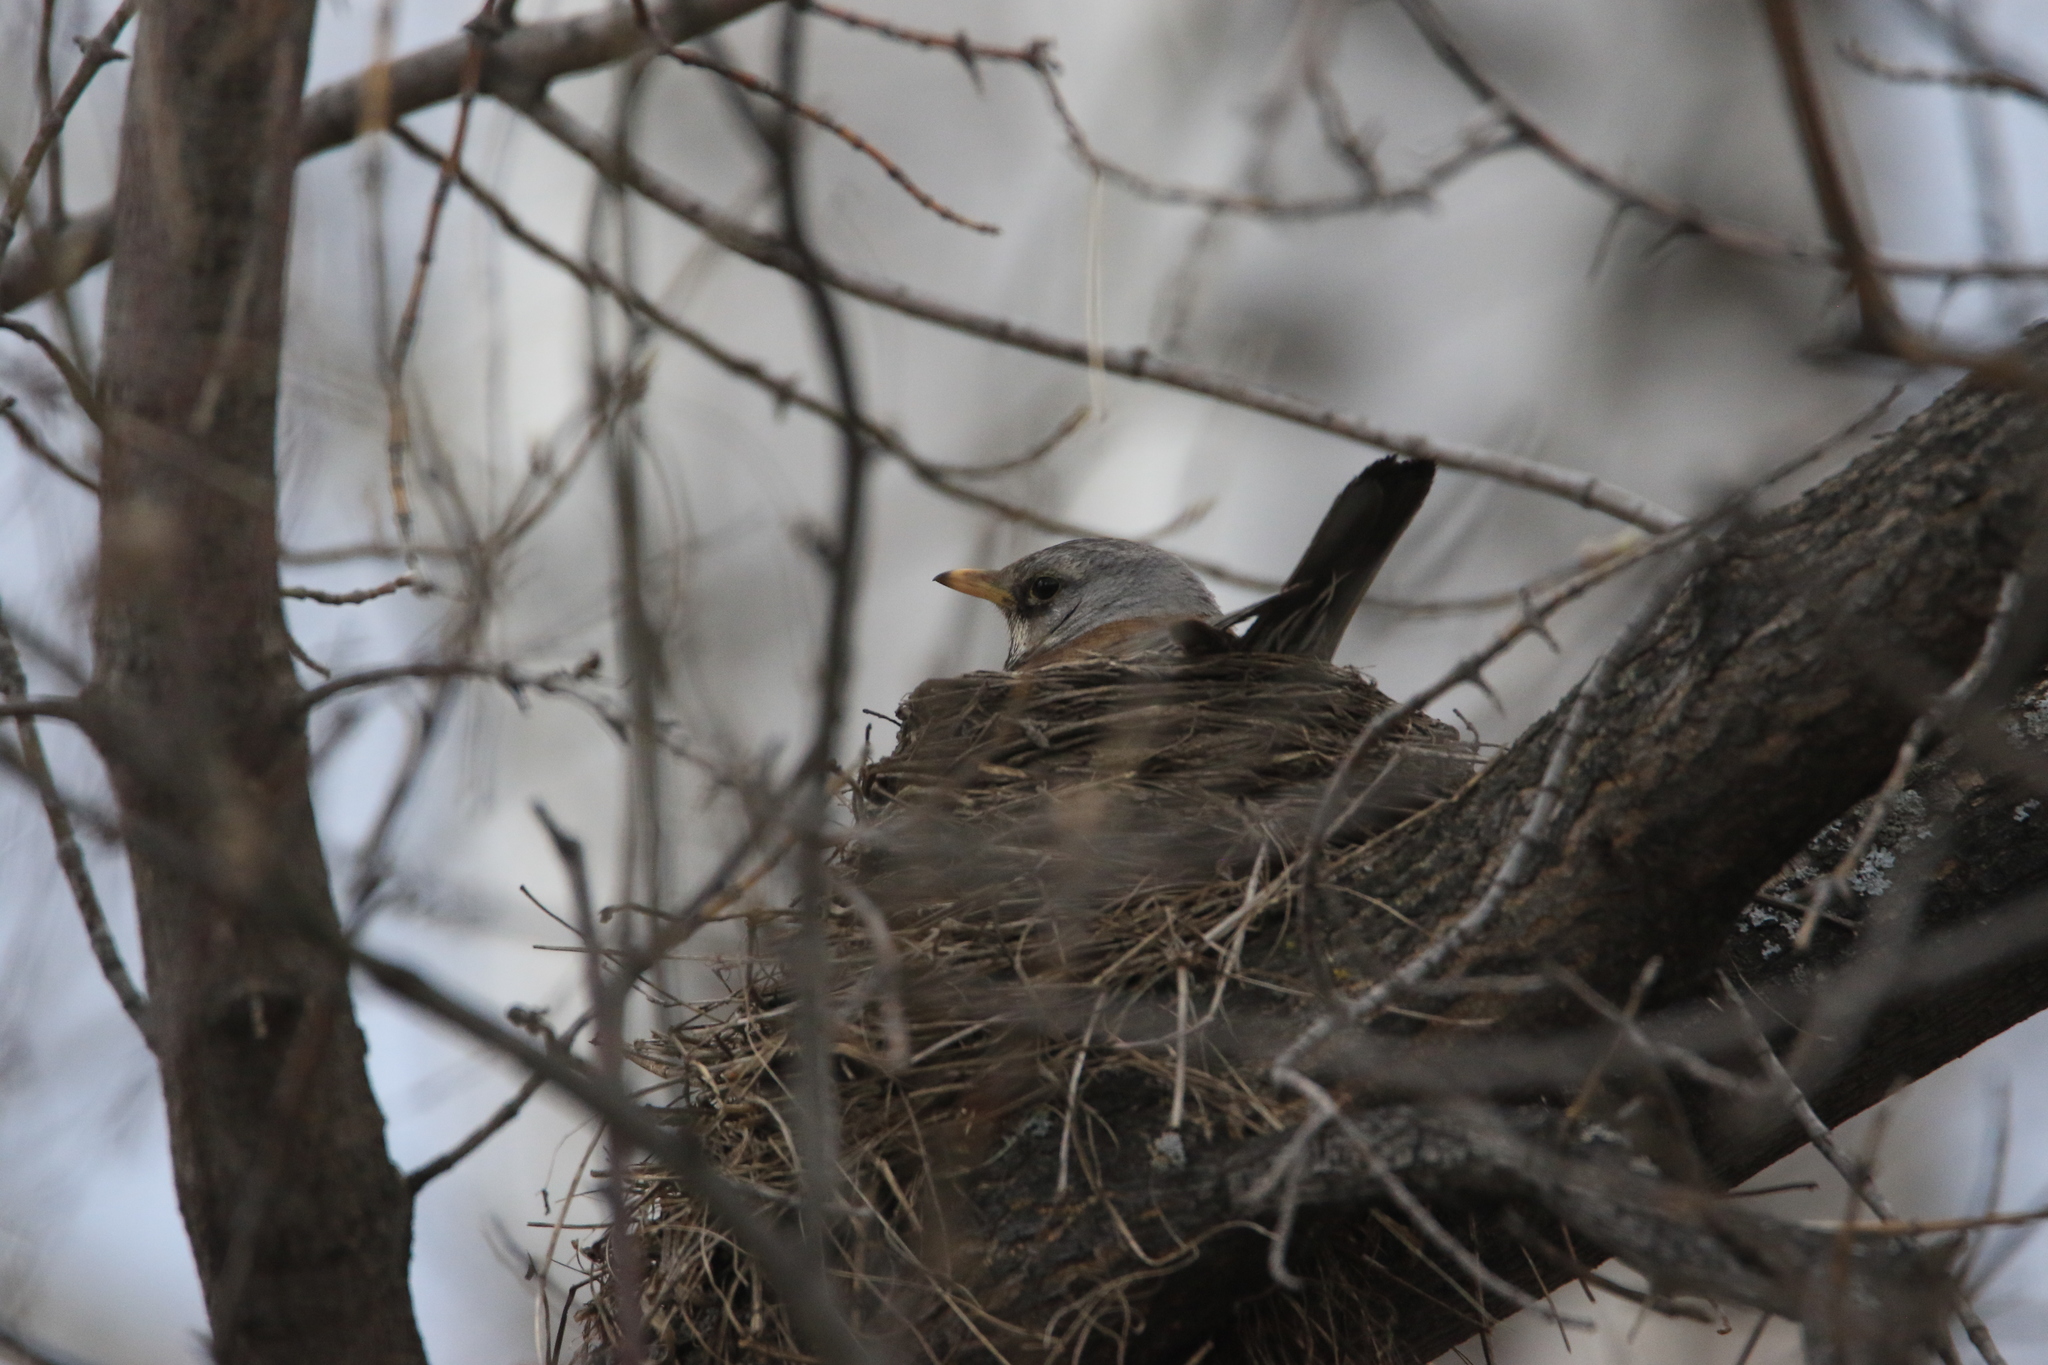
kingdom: Animalia
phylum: Chordata
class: Aves
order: Passeriformes
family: Turdidae
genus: Turdus
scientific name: Turdus pilaris
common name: Fieldfare
